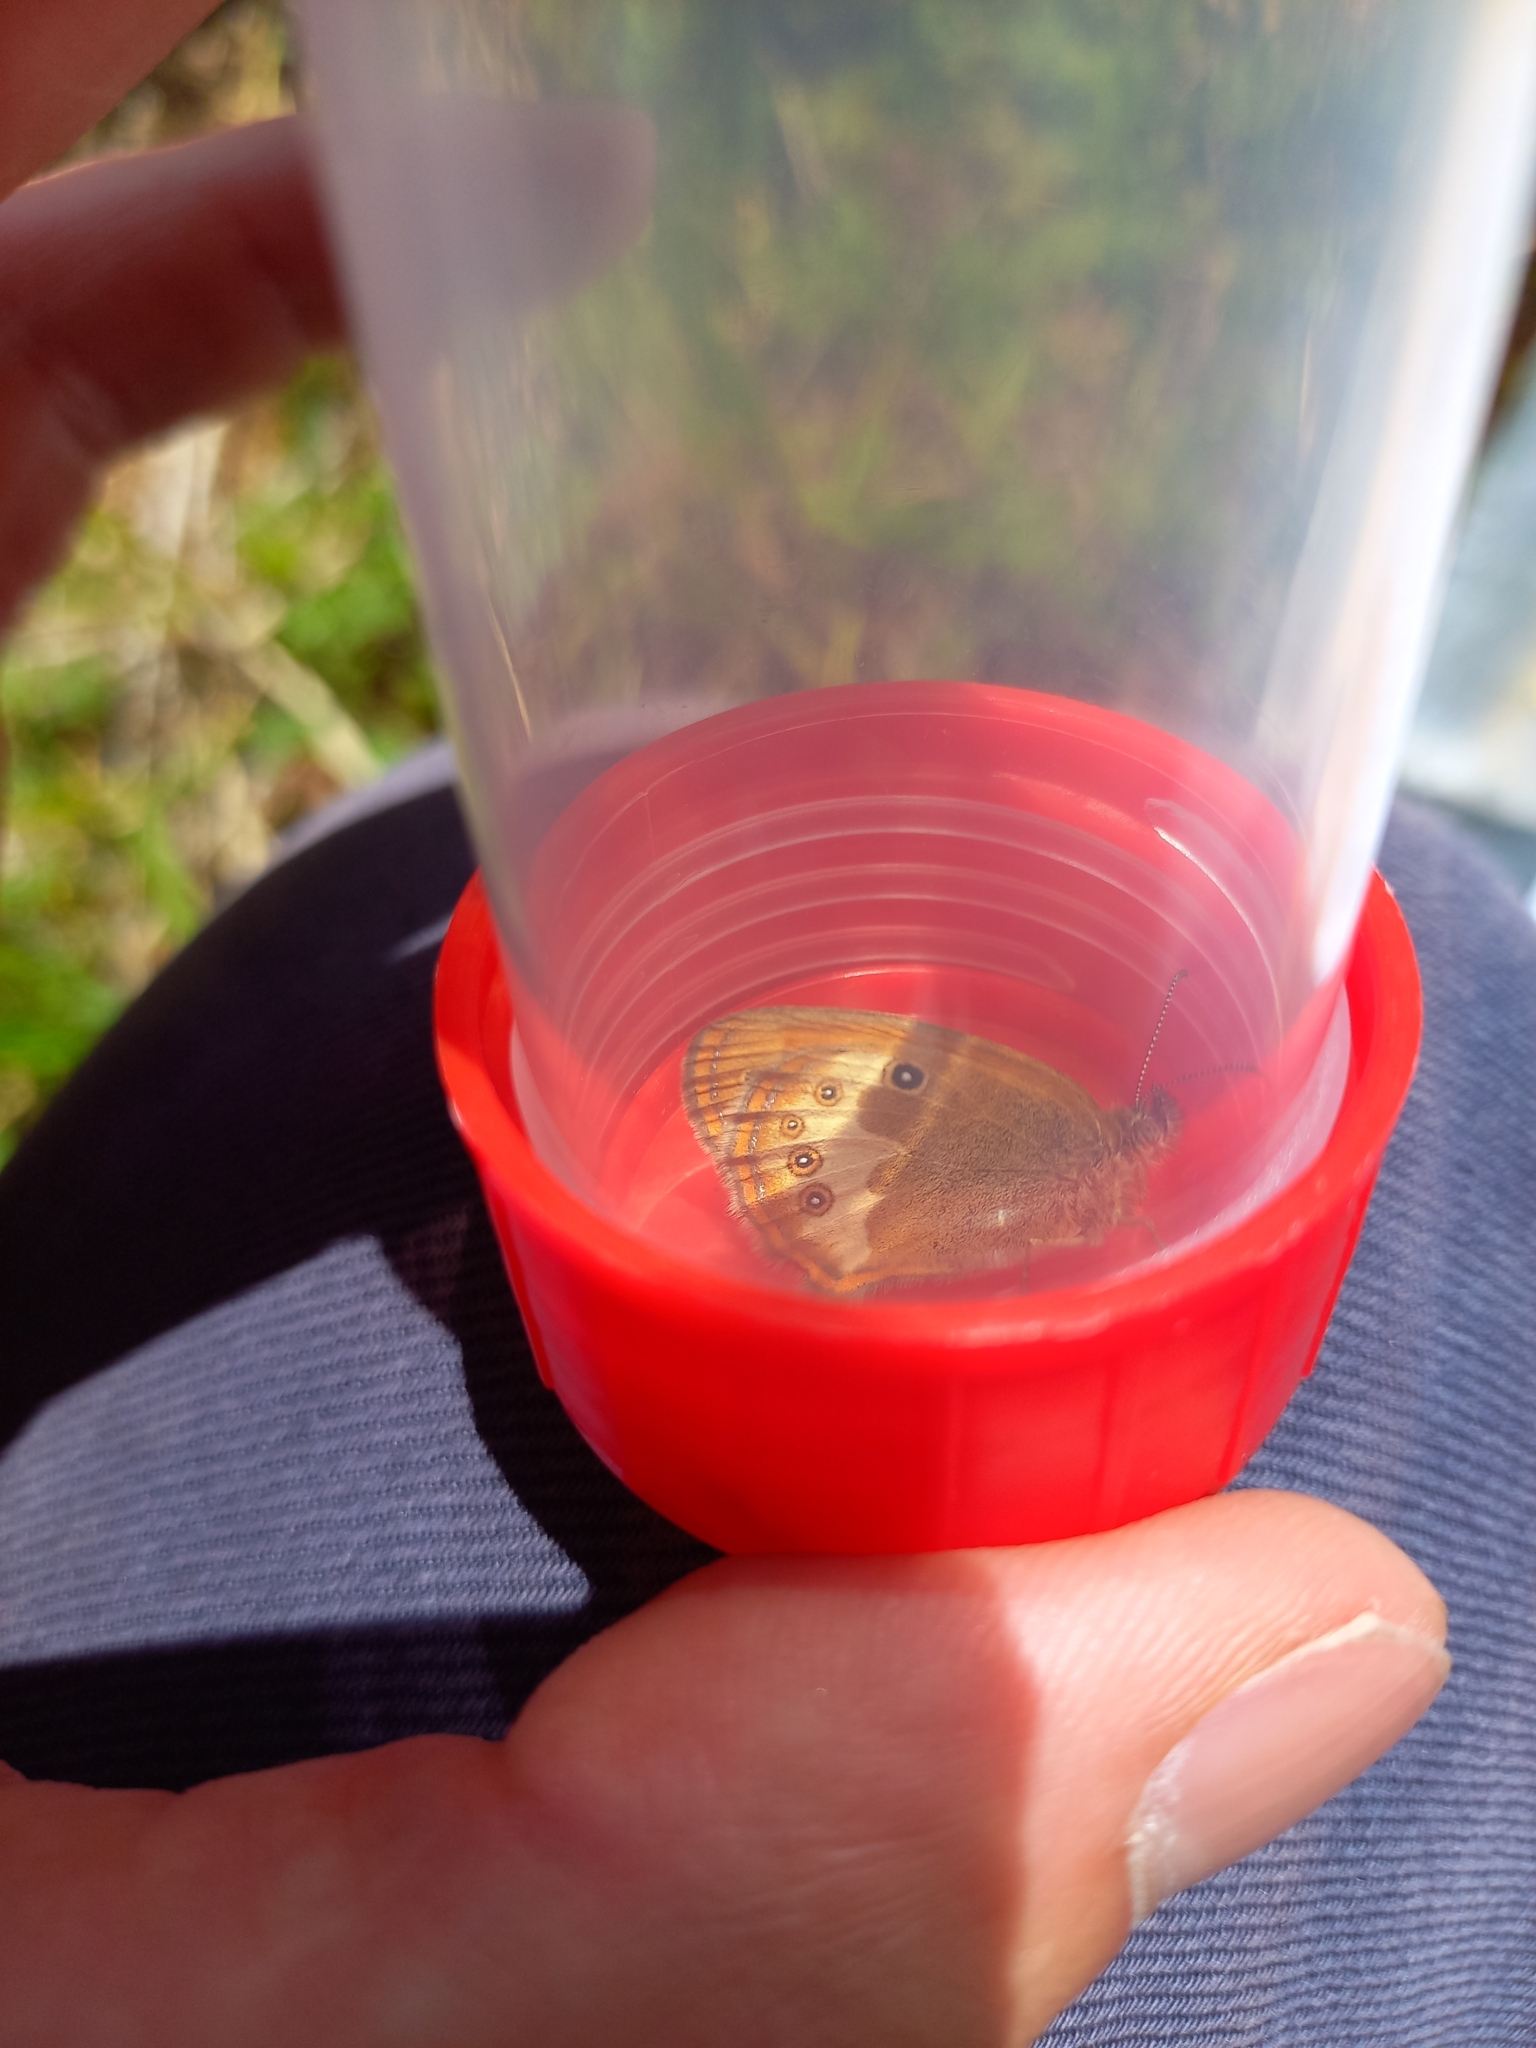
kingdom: Animalia
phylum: Arthropoda
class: Insecta
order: Lepidoptera
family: Nymphalidae
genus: Coenonympha
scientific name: Coenonympha arcania
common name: Pearly heath
